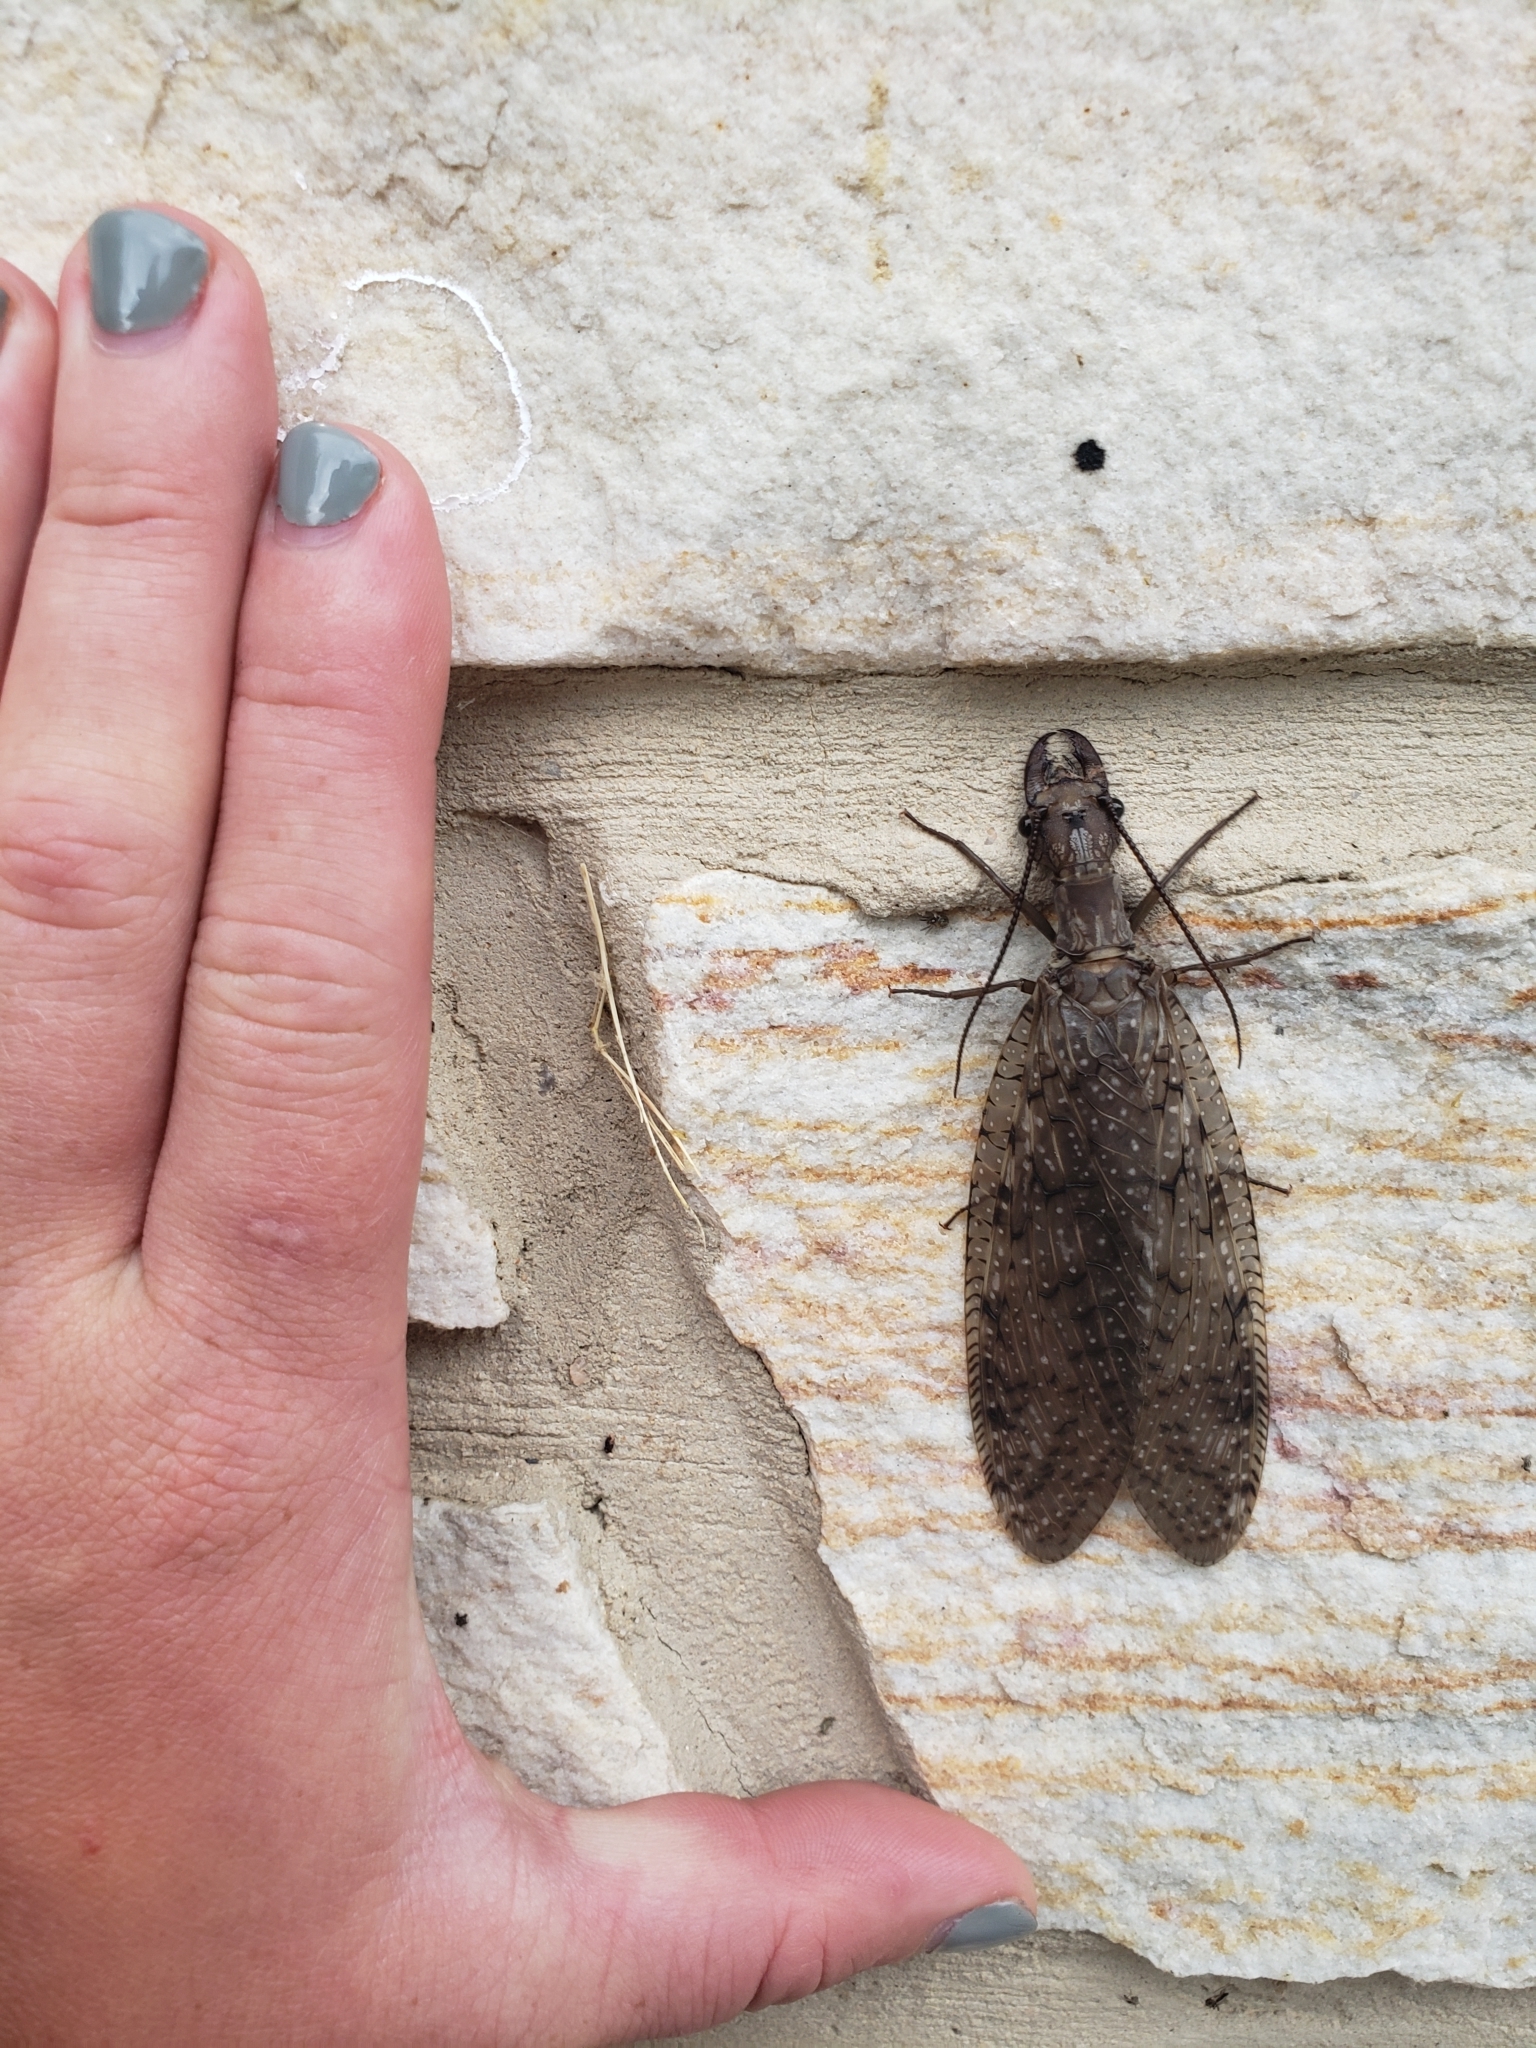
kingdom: Animalia
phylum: Arthropoda
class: Insecta
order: Megaloptera
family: Corydalidae
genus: Corydalus
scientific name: Corydalus cornutus
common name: Dobsonfly
